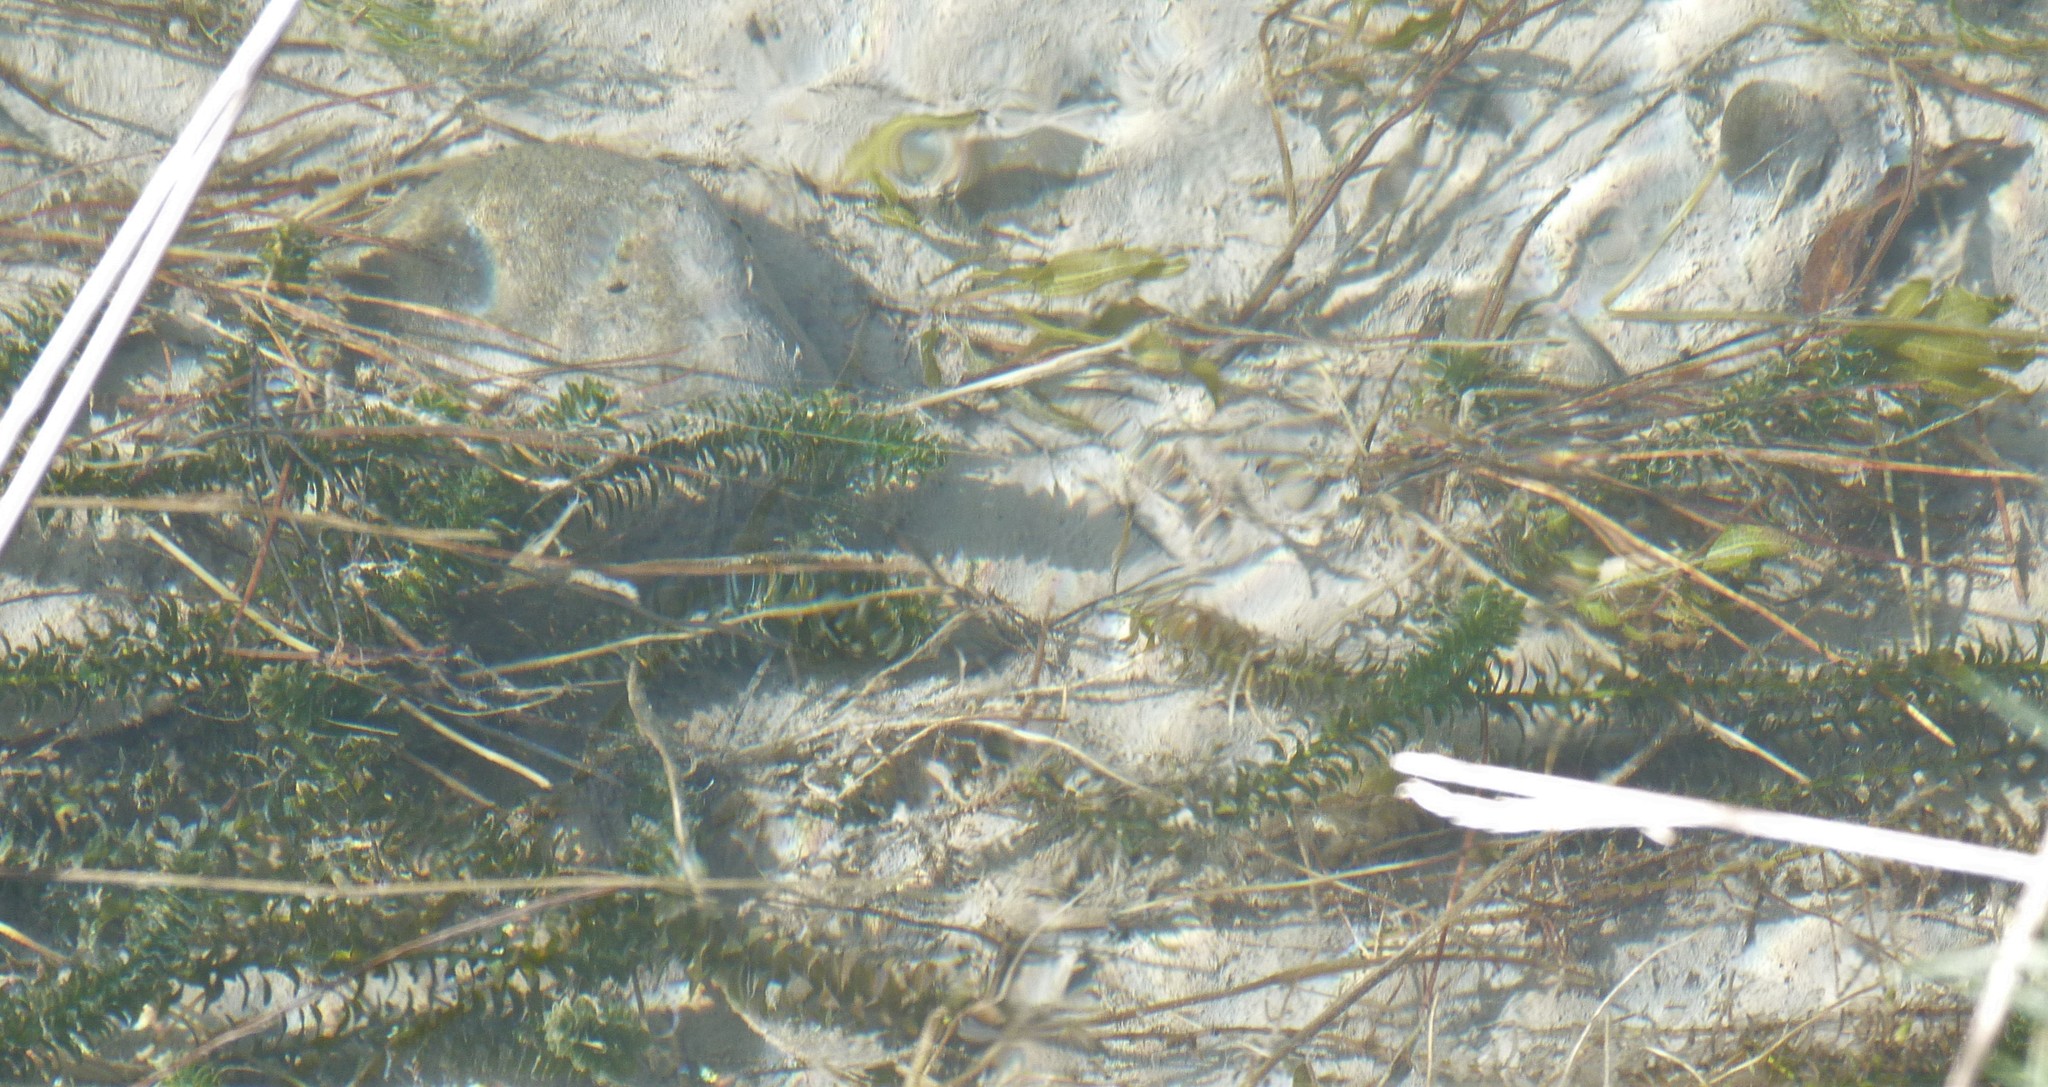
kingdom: Plantae
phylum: Tracheophyta
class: Liliopsida
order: Alismatales
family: Hydrocharitaceae
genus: Elodea
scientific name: Elodea canadensis
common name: Canadian waterweed
